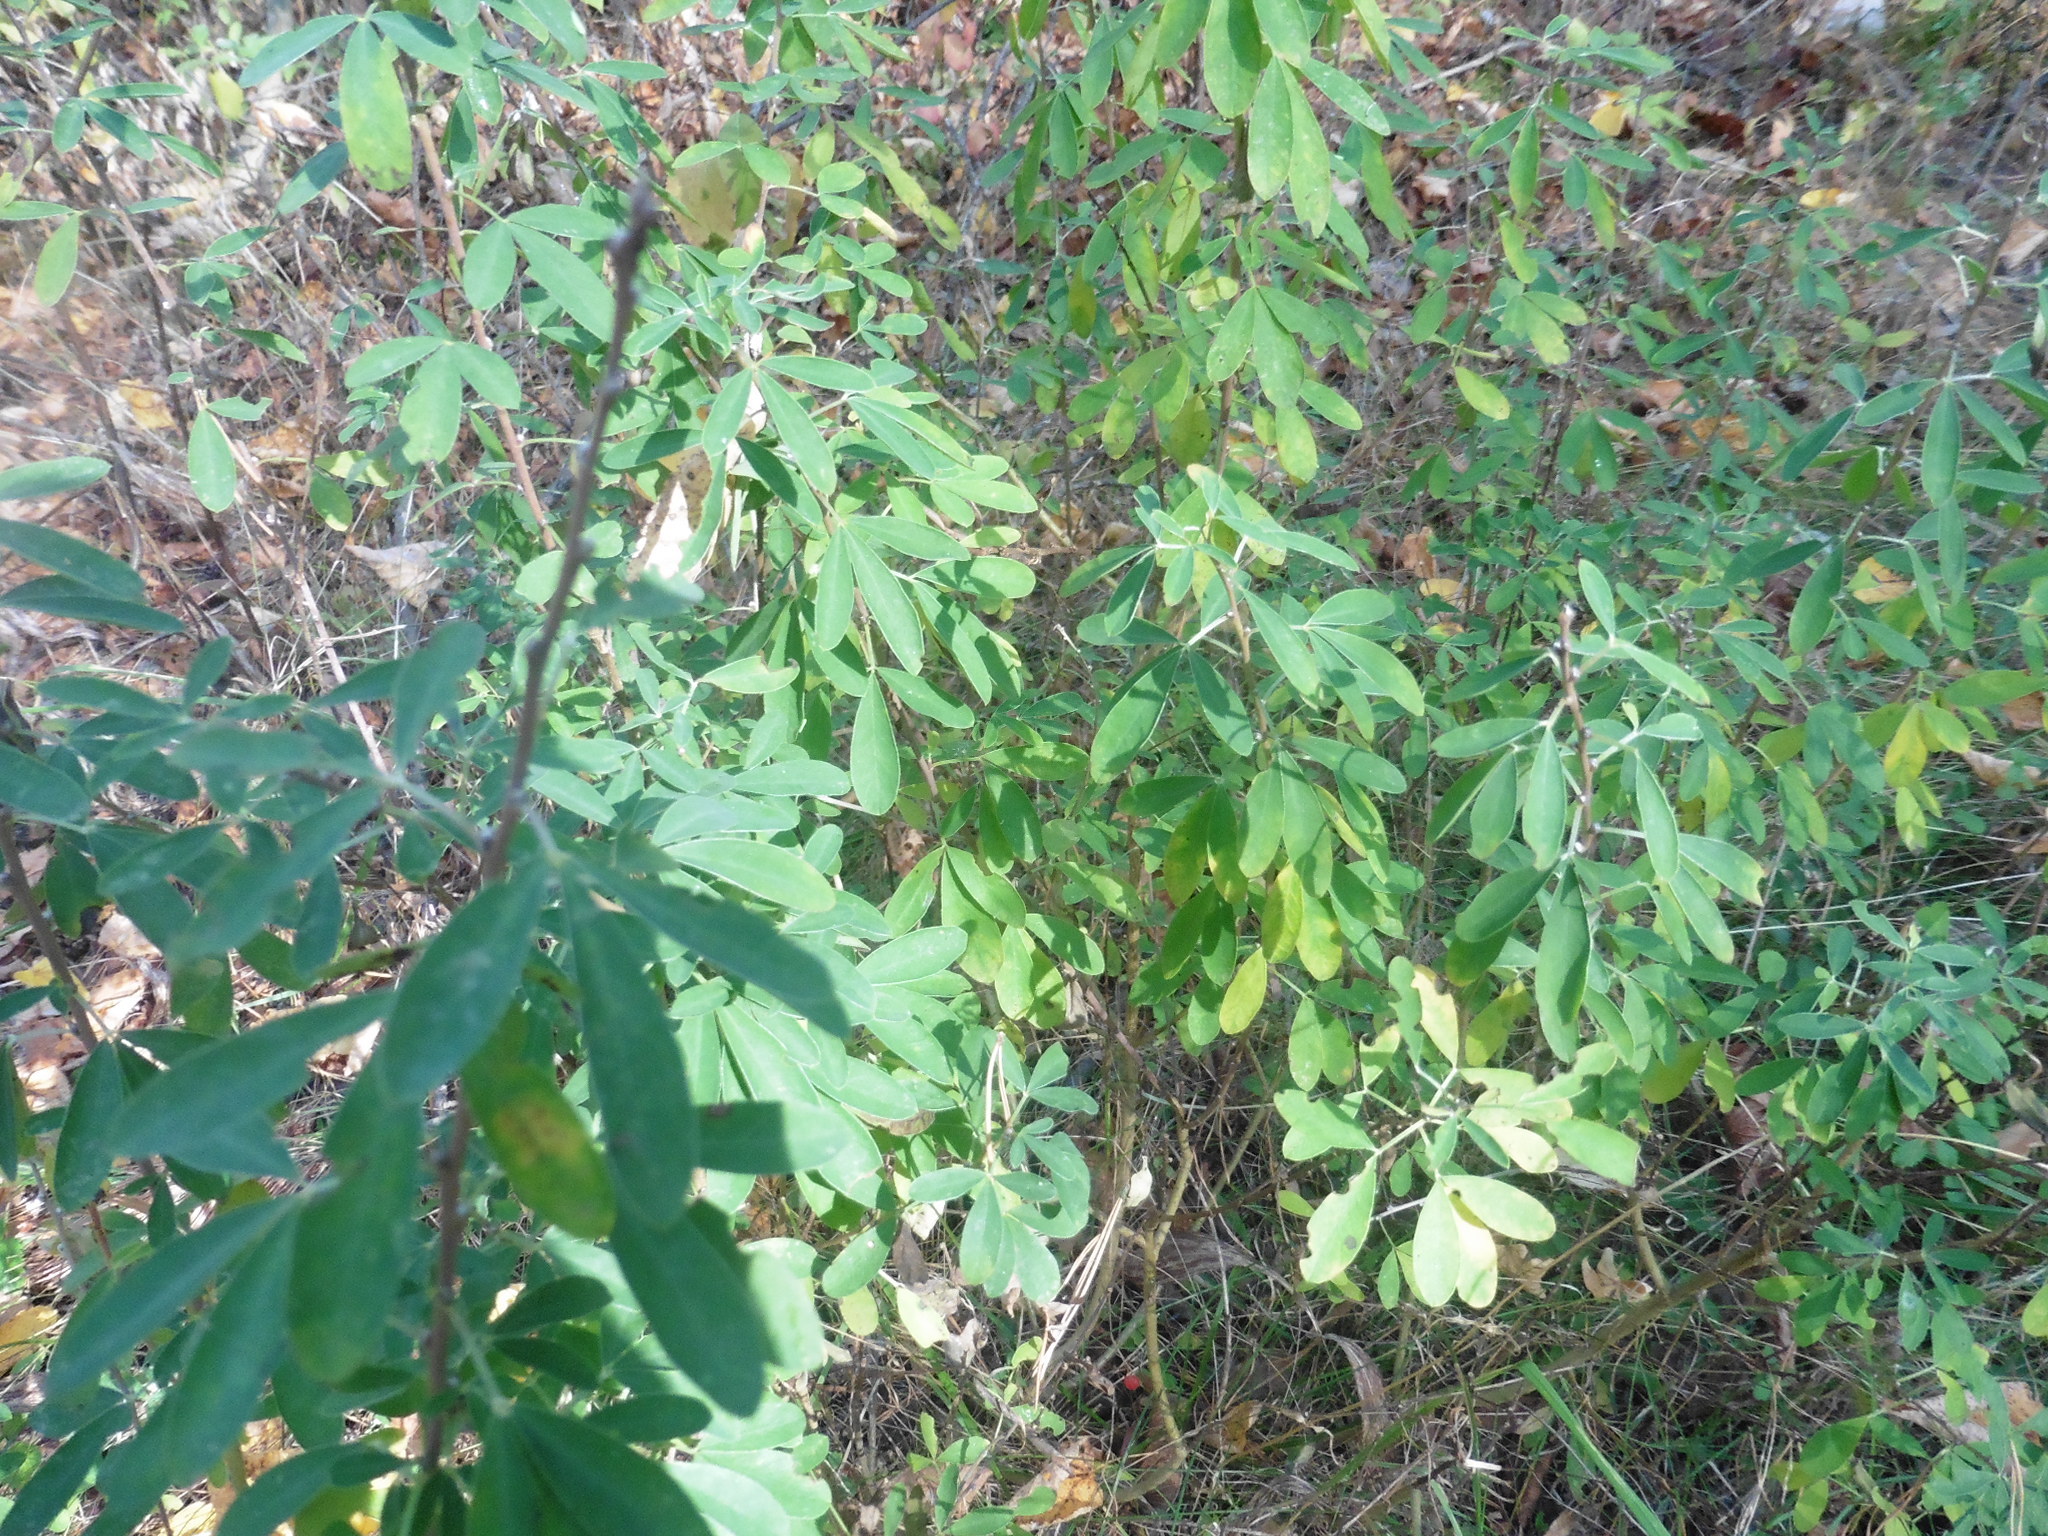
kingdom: Plantae
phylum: Tracheophyta
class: Magnoliopsida
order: Fabales
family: Fabaceae
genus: Chamaecytisus
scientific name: Chamaecytisus ruthenicus
